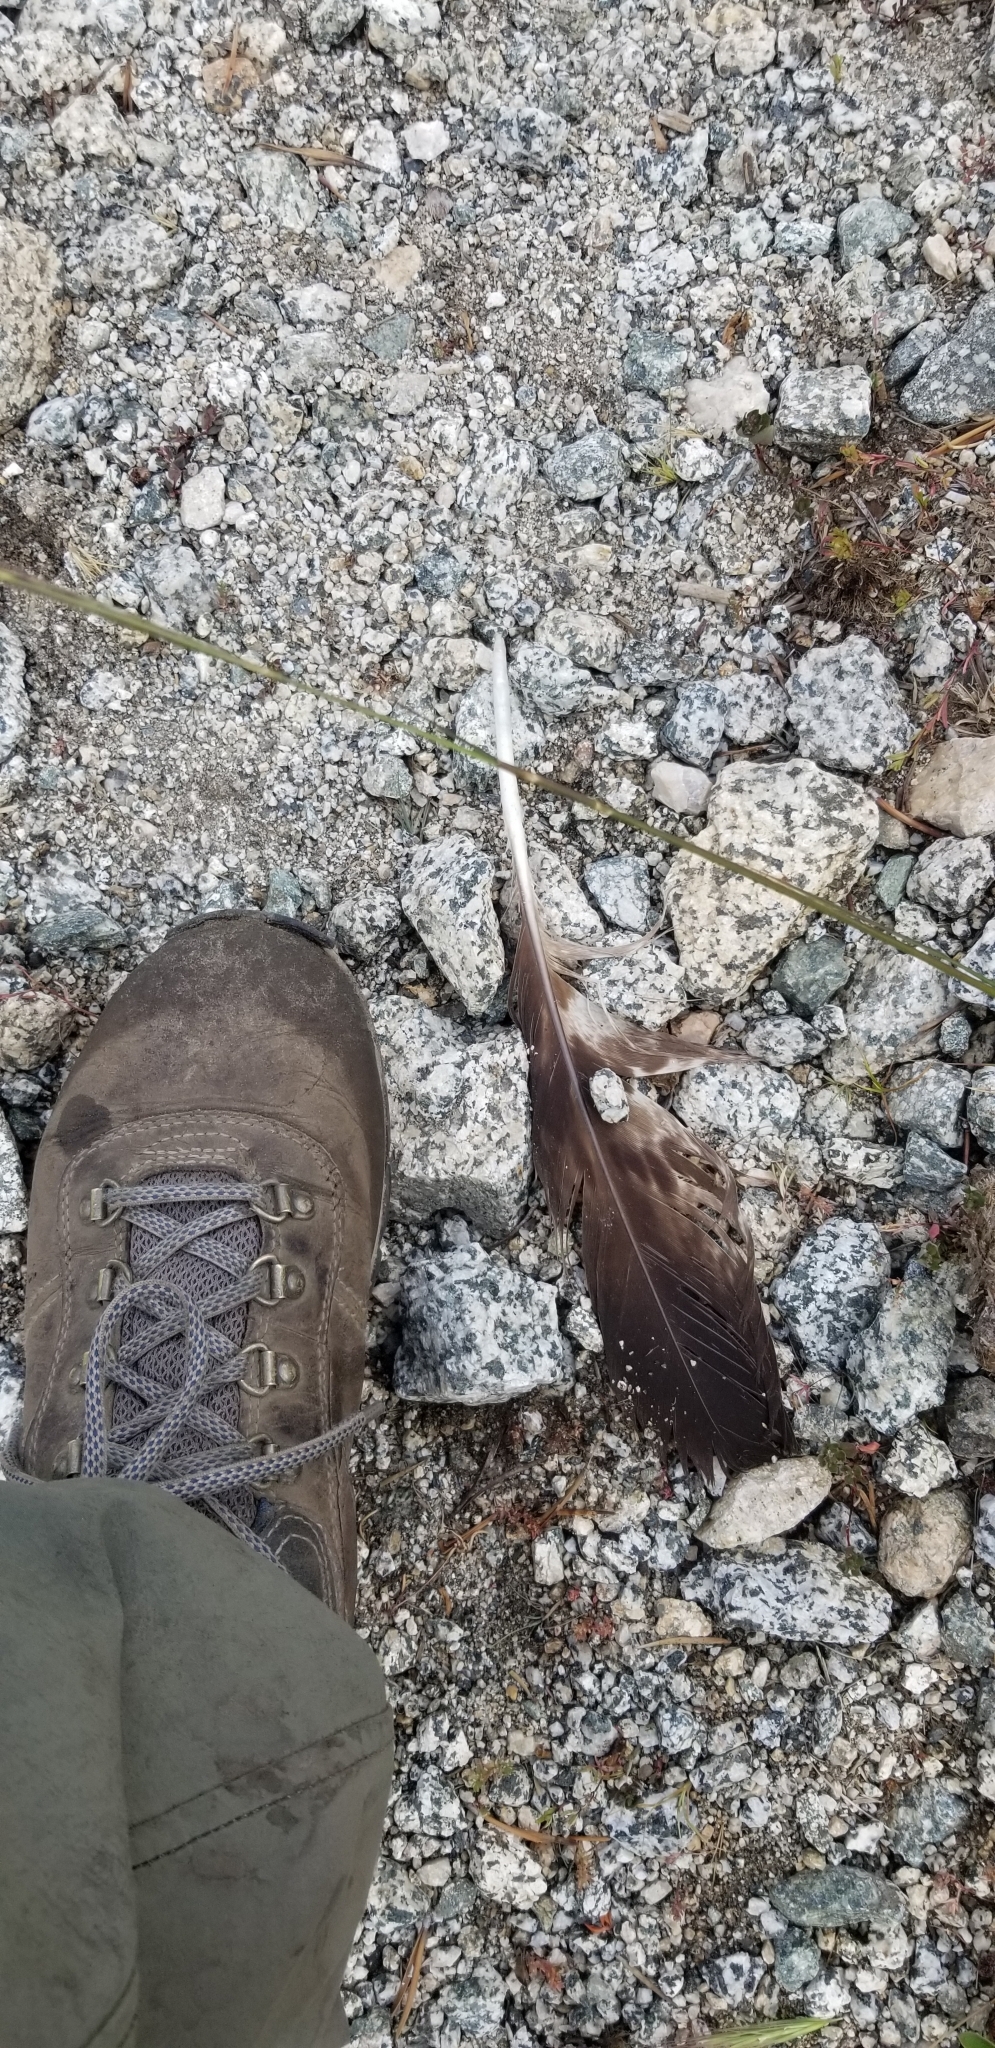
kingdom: Animalia
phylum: Chordata
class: Aves
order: Accipitriformes
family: Accipitridae
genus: Aquila
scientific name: Aquila chrysaetos
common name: Golden eagle
